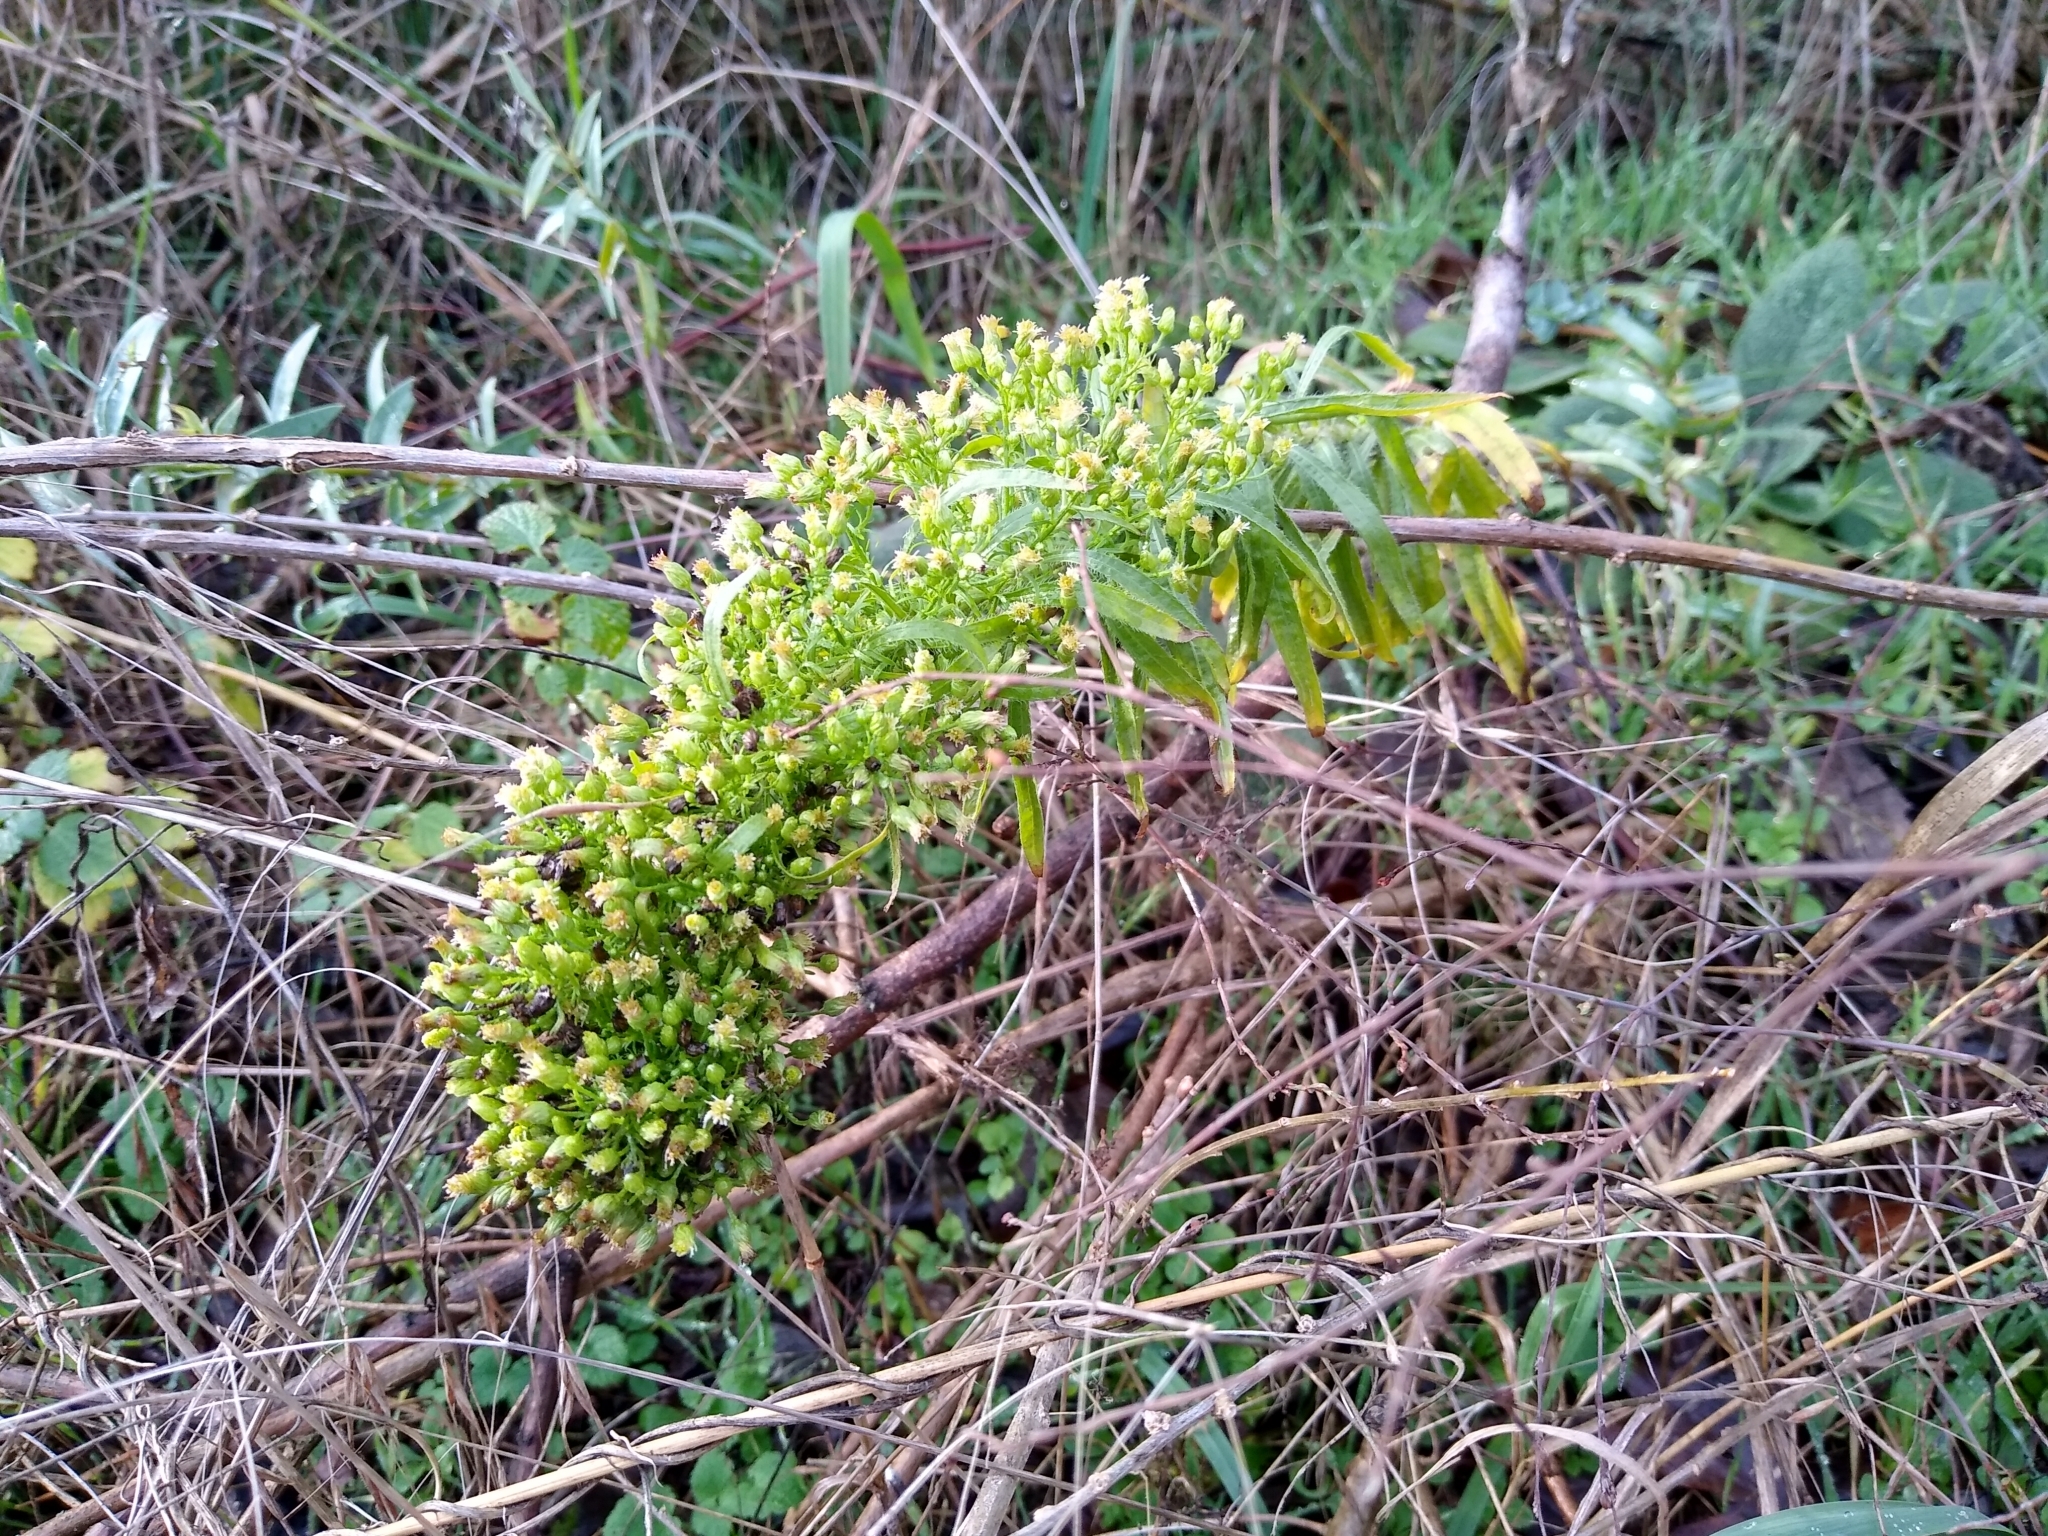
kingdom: Plantae
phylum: Tracheophyta
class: Magnoliopsida
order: Asterales
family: Asteraceae
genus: Erigeron
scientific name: Erigeron canadensis
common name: Canadian fleabane
